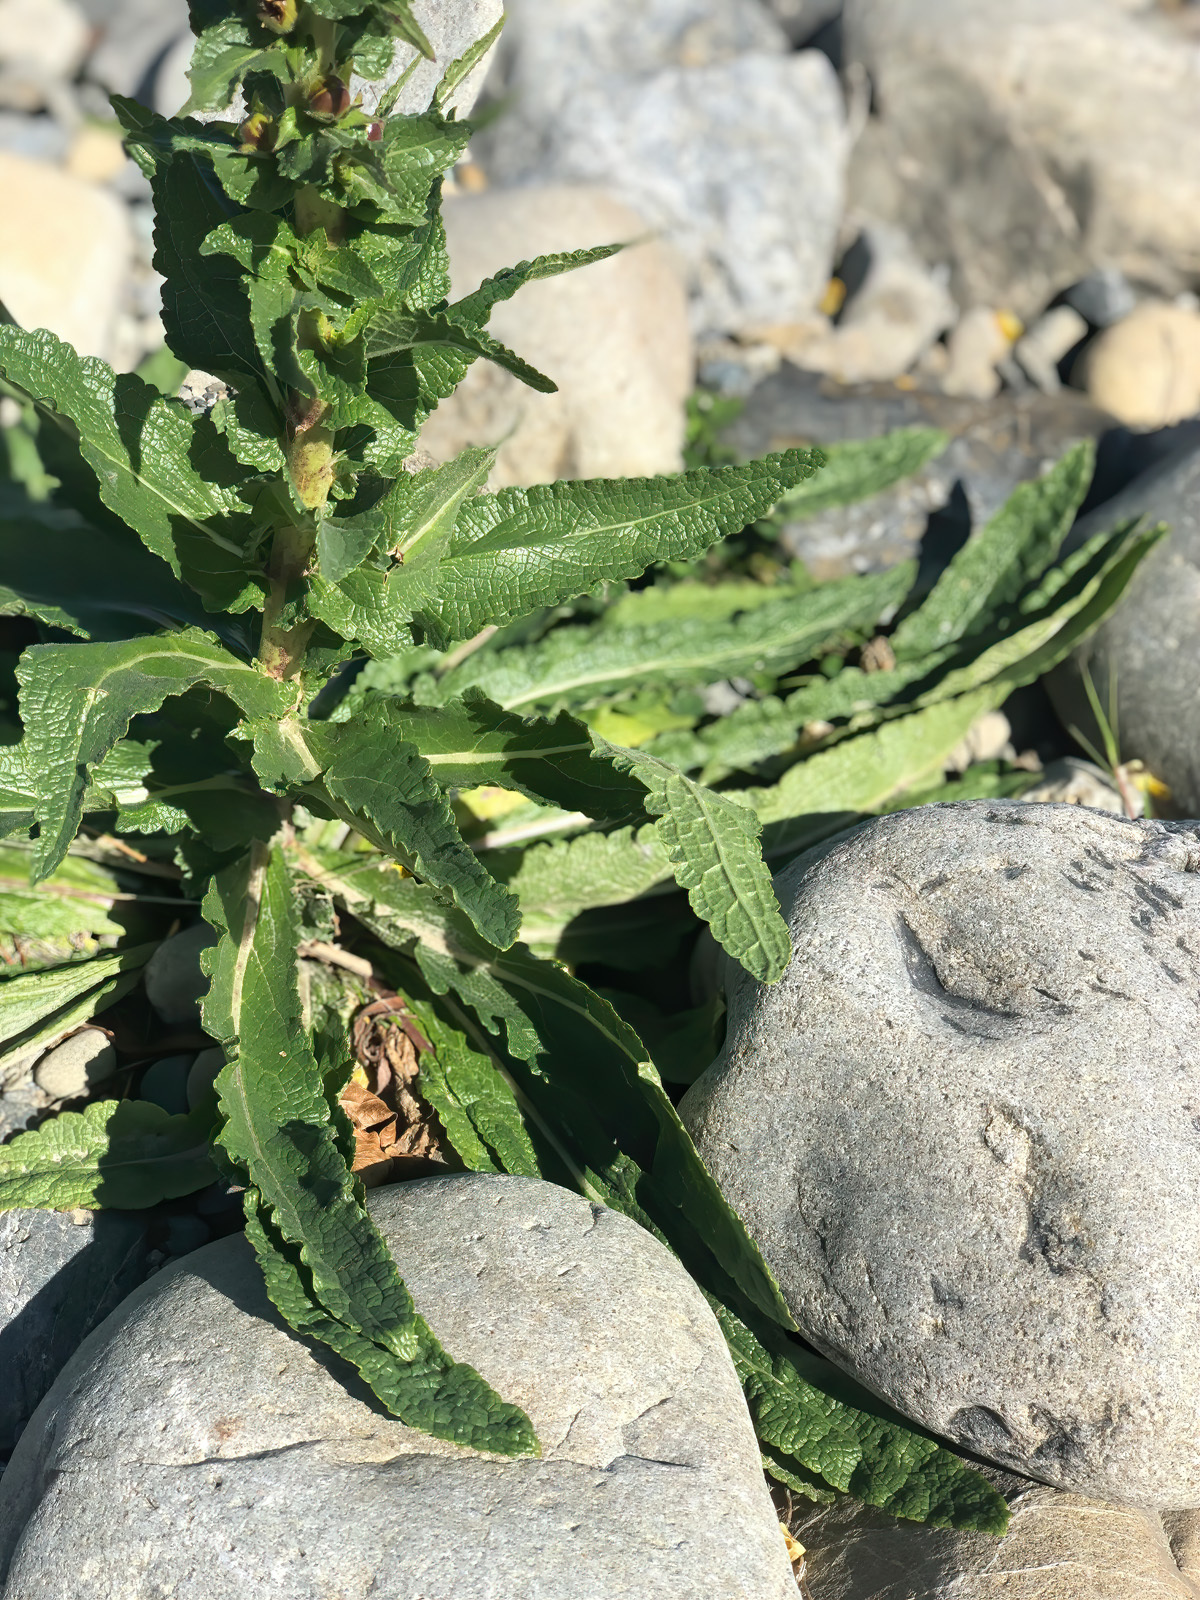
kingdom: Plantae
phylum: Tracheophyta
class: Magnoliopsida
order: Lamiales
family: Scrophulariaceae
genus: Verbascum
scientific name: Verbascum virgatum
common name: Twiggy mullein
